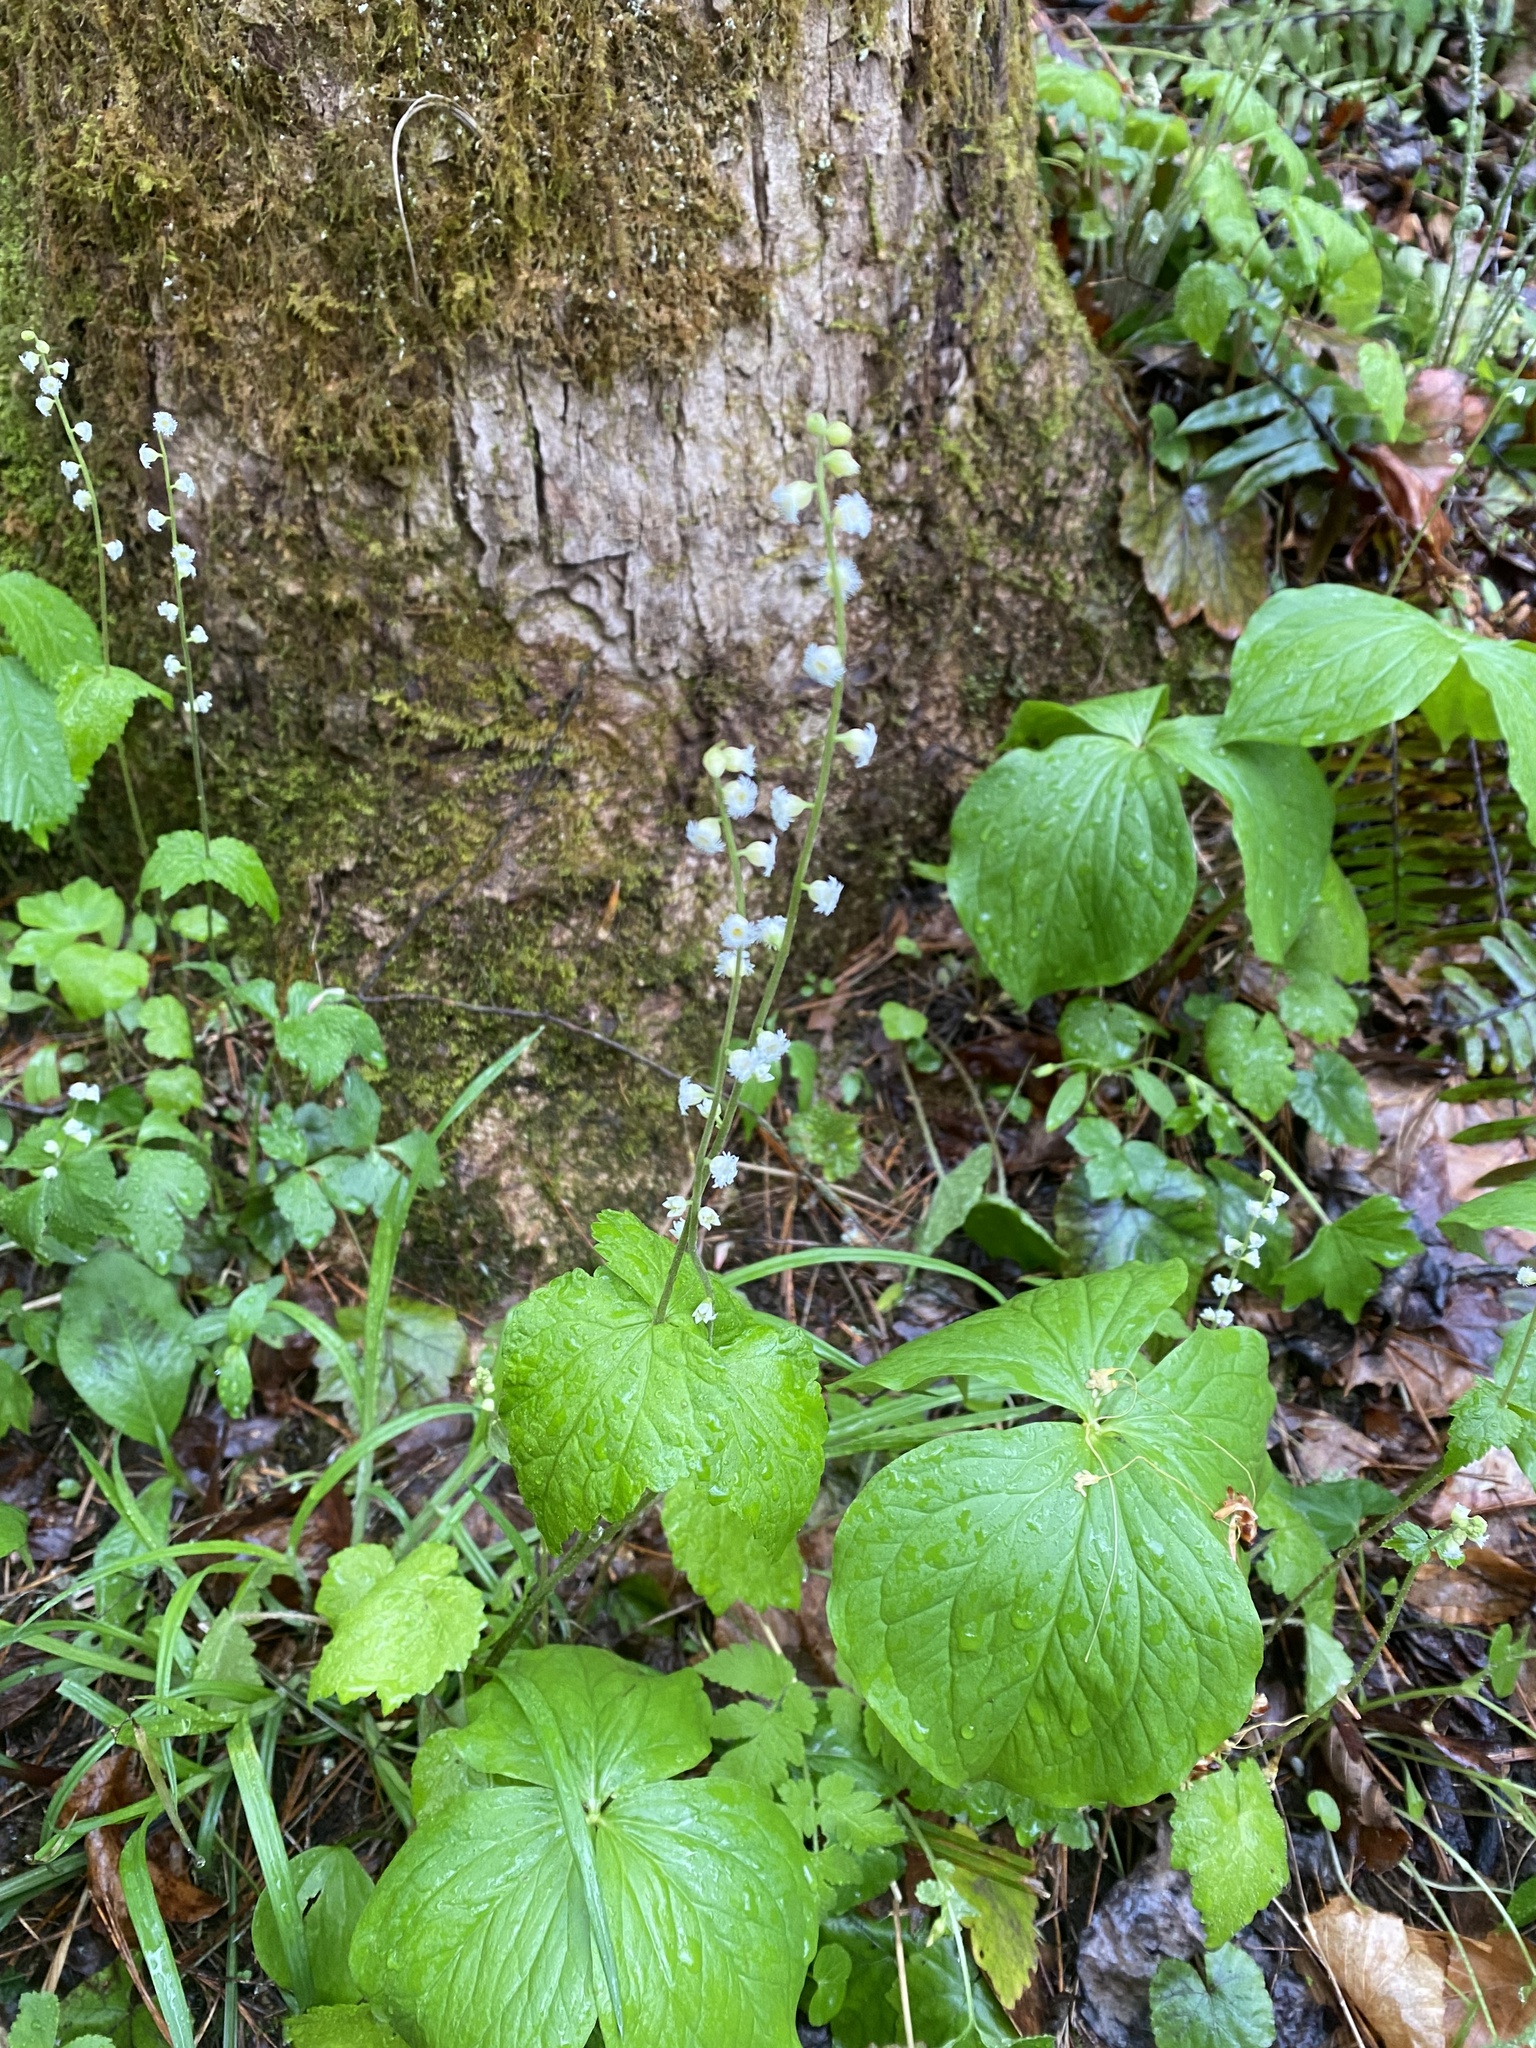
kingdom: Plantae
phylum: Tracheophyta
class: Magnoliopsida
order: Saxifragales
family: Saxifragaceae
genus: Mitella
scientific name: Mitella diphylla
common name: Coolwort
